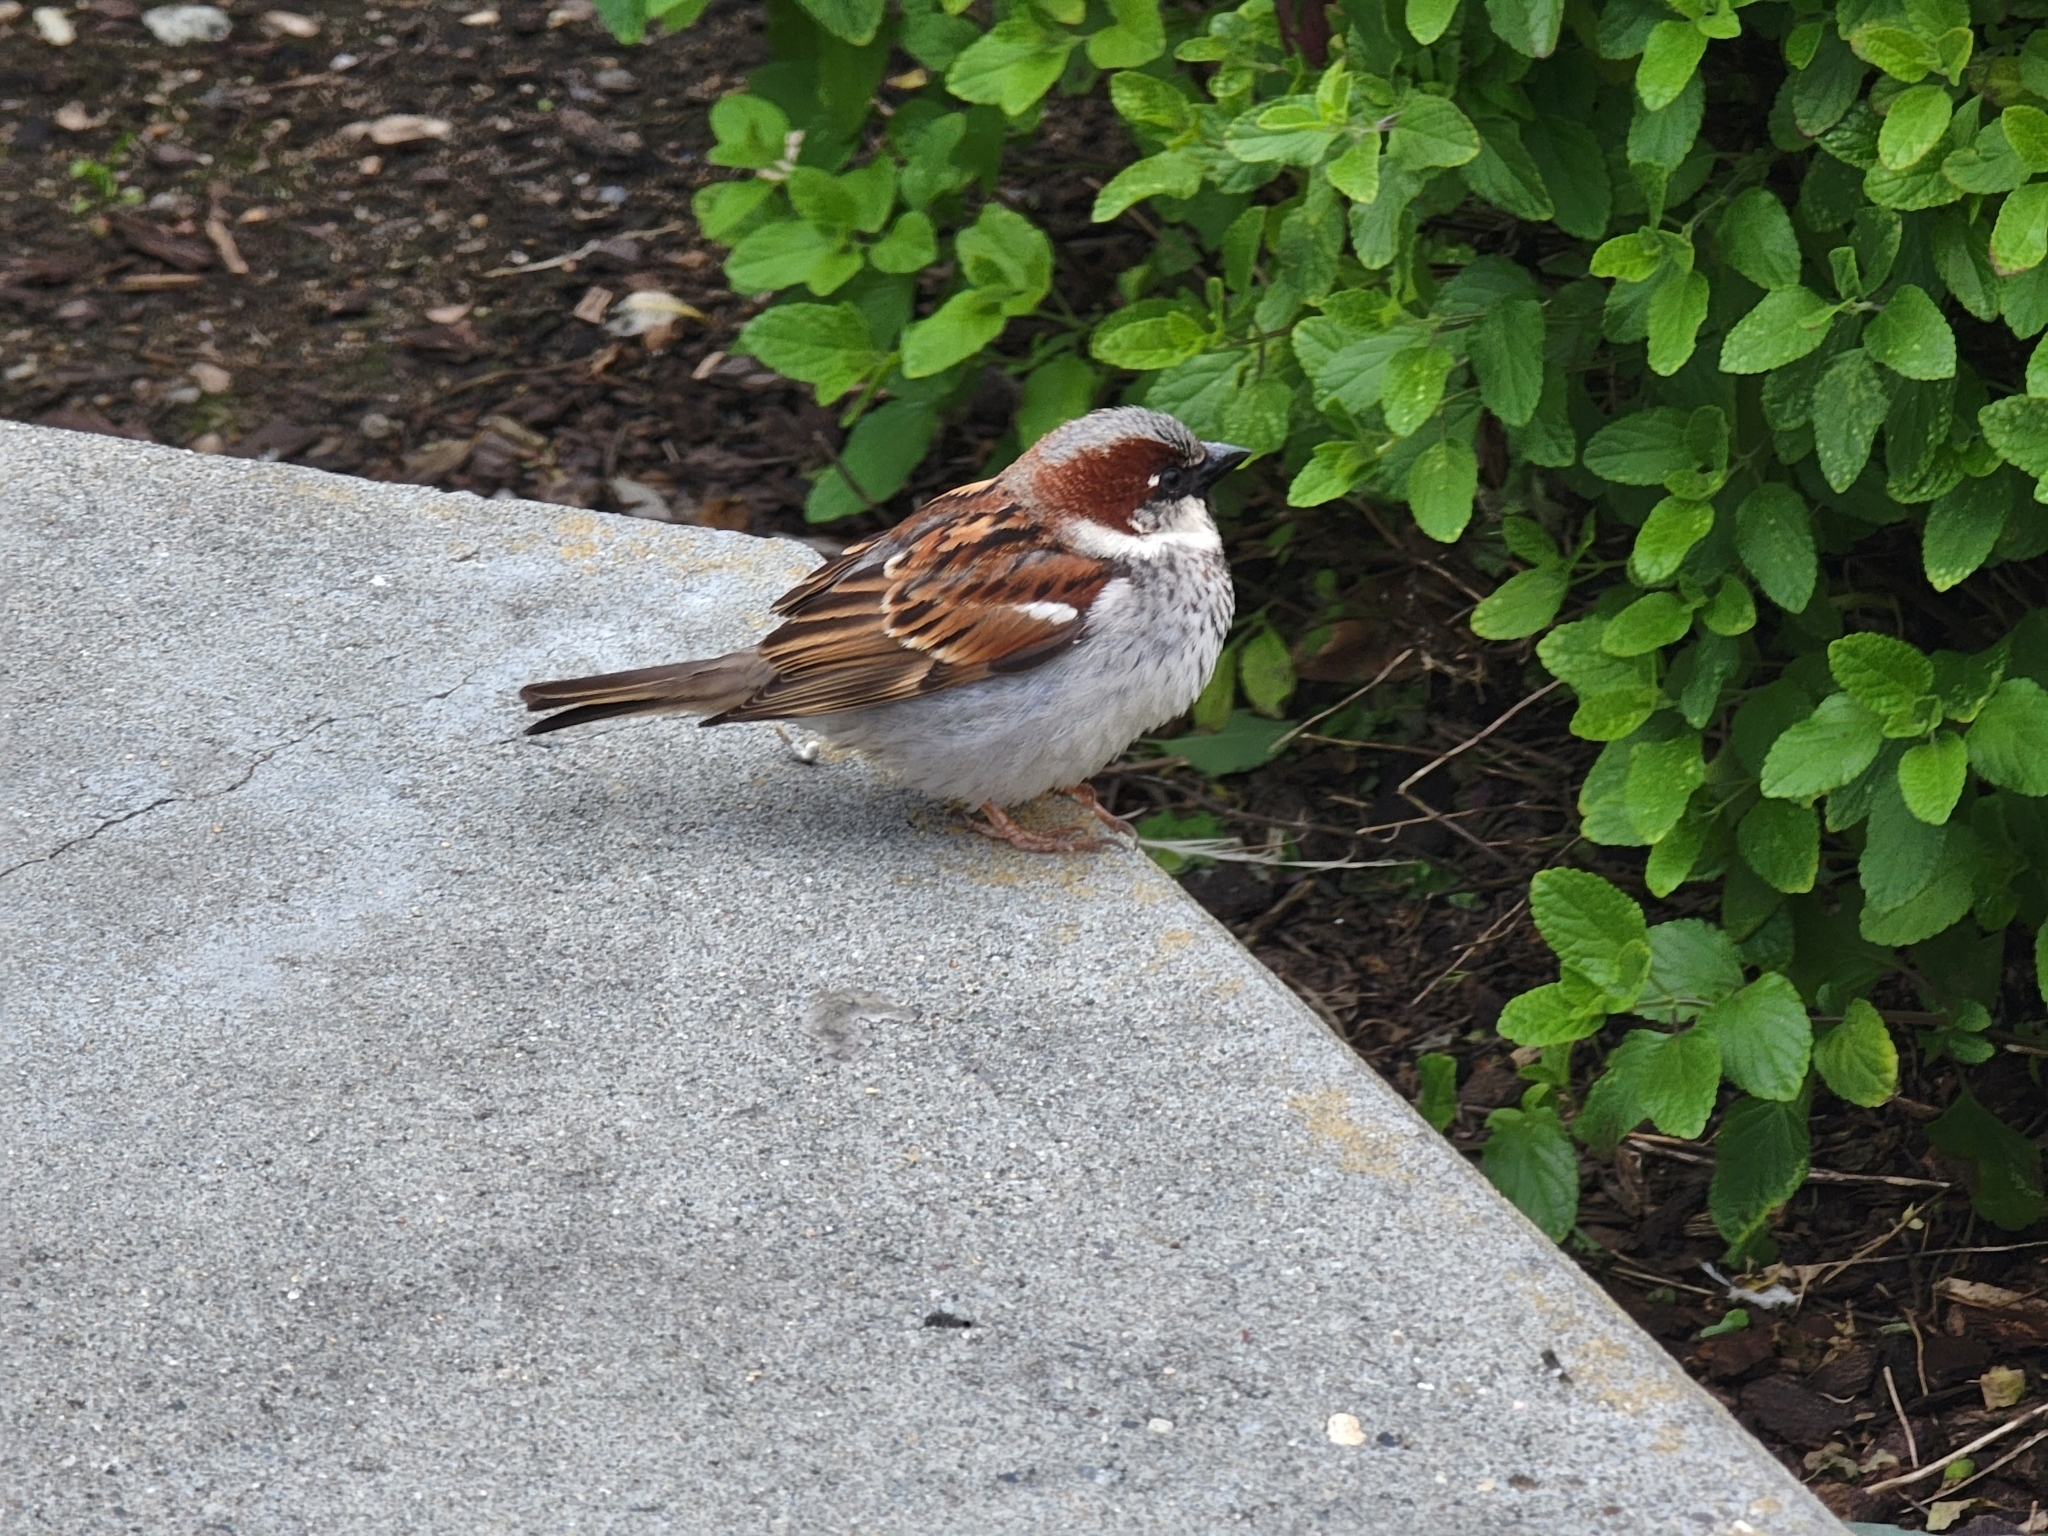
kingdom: Animalia
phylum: Chordata
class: Aves
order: Passeriformes
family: Passeridae
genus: Passer
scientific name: Passer domesticus
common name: House sparrow
